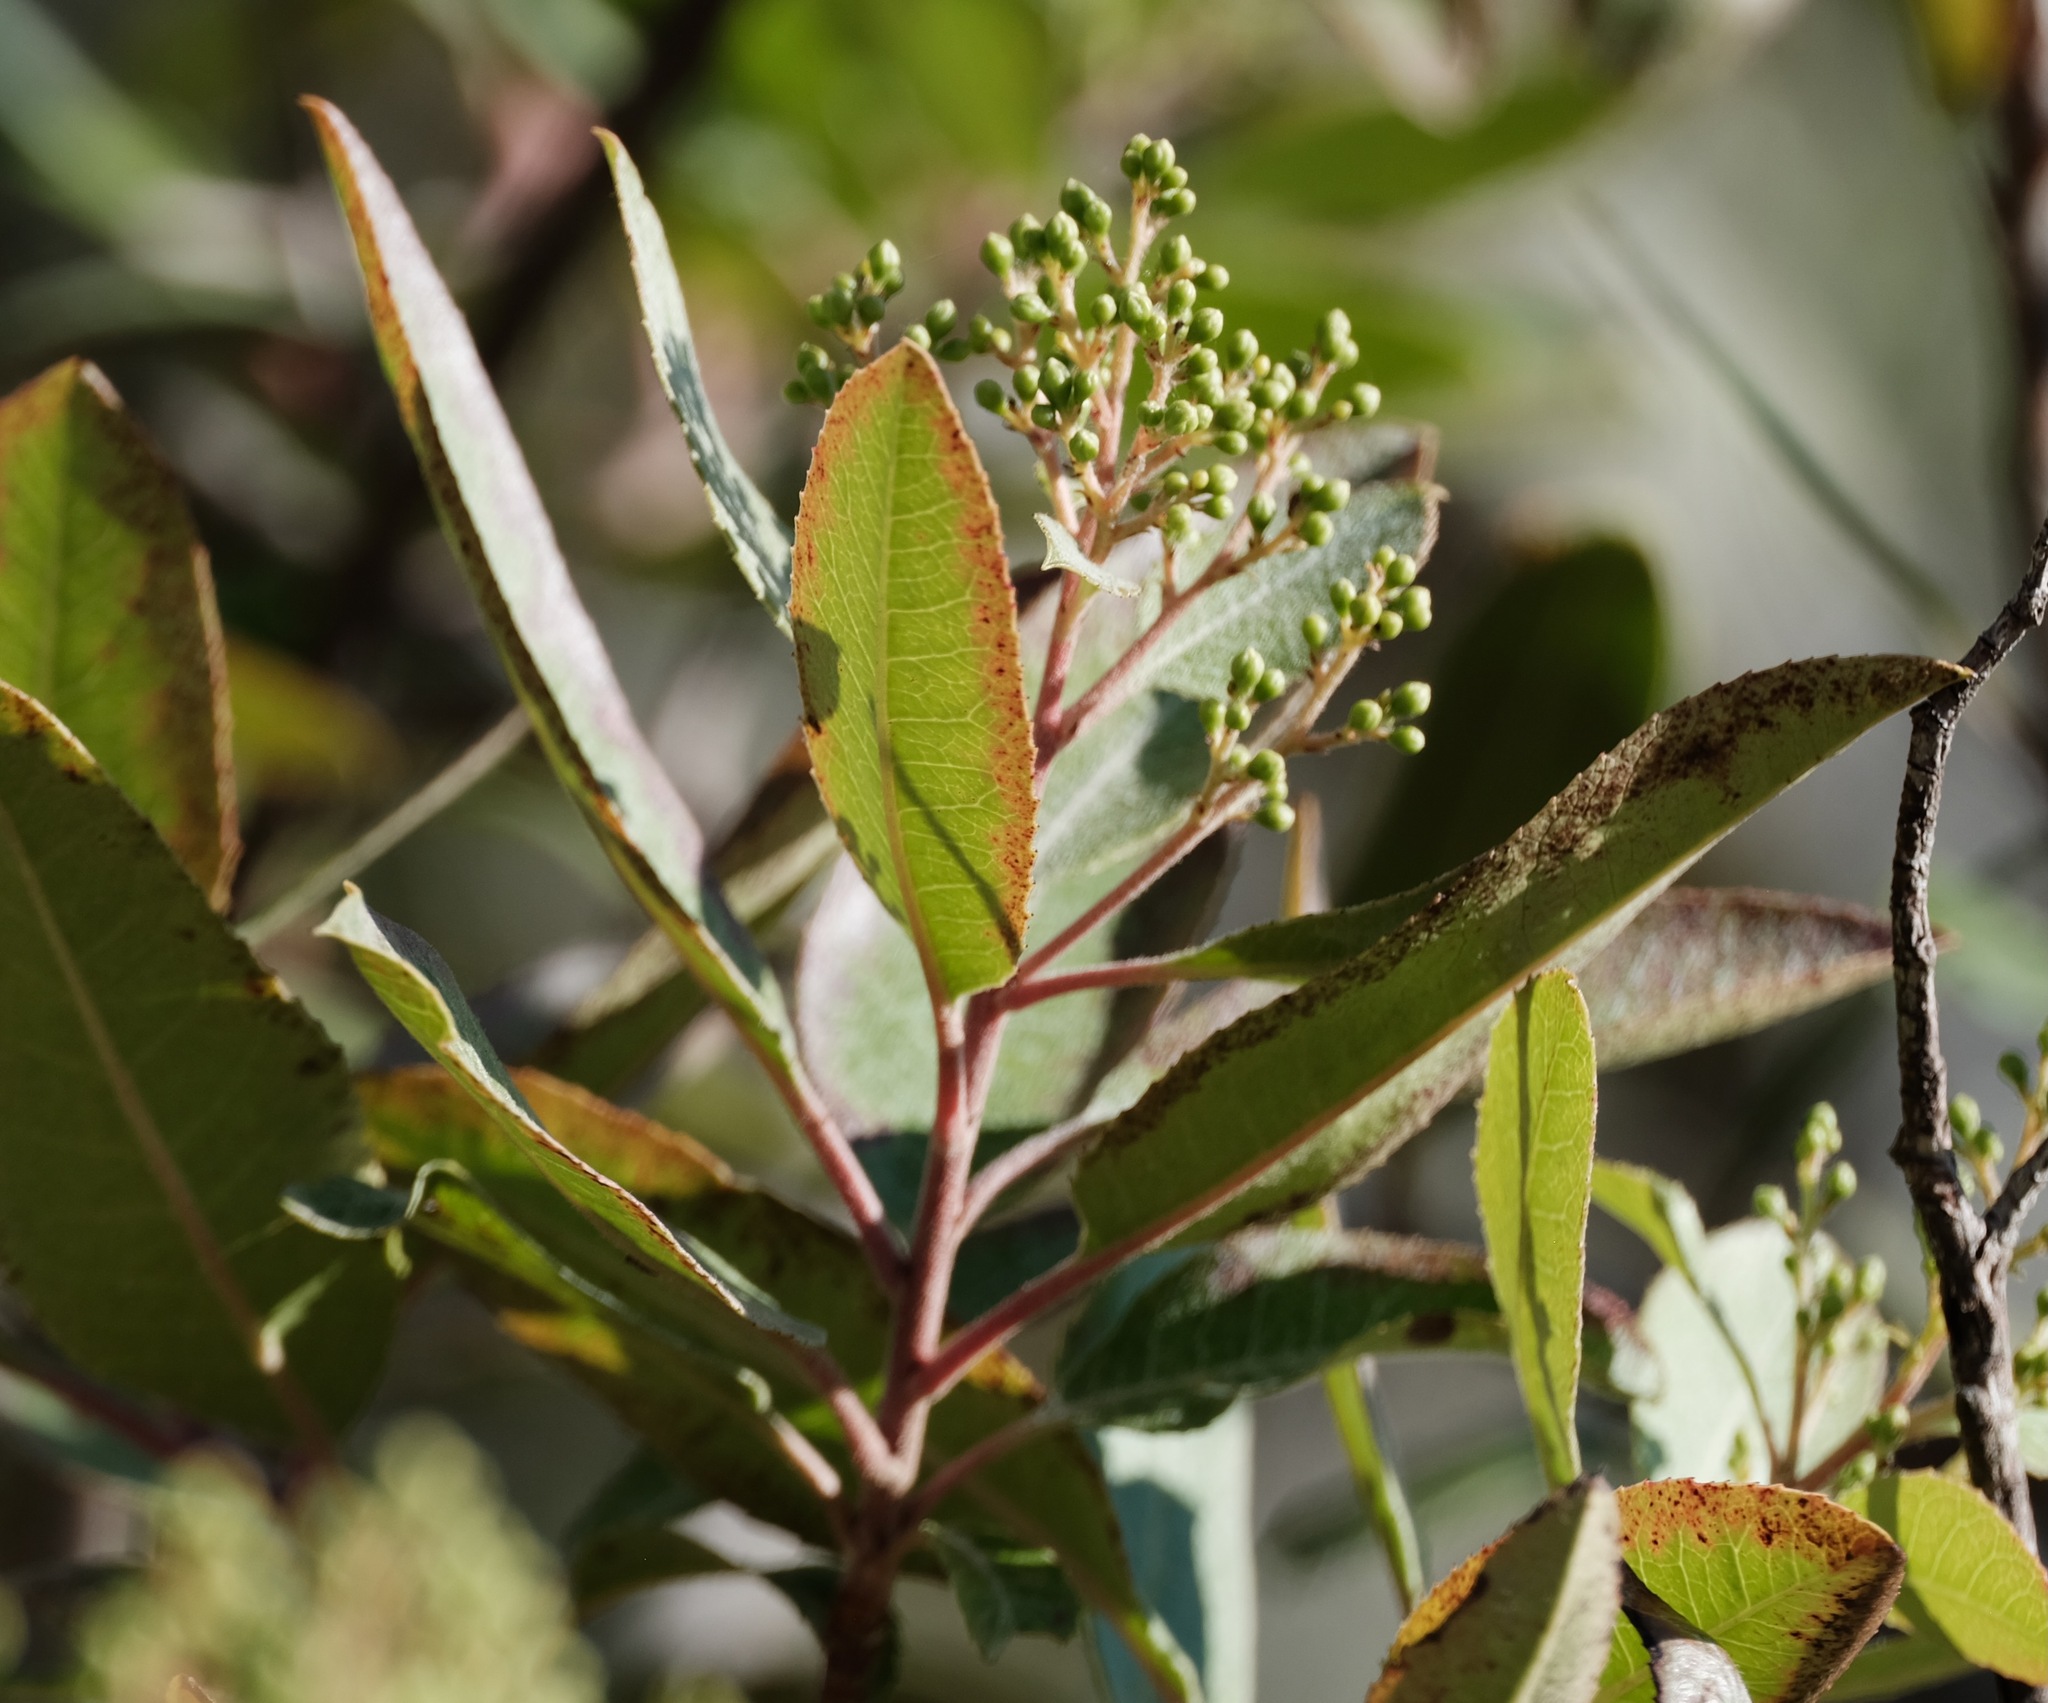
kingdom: Plantae
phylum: Tracheophyta
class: Magnoliopsida
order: Rosales
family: Rosaceae
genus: Heteromeles
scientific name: Heteromeles arbutifolia
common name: California-holly
